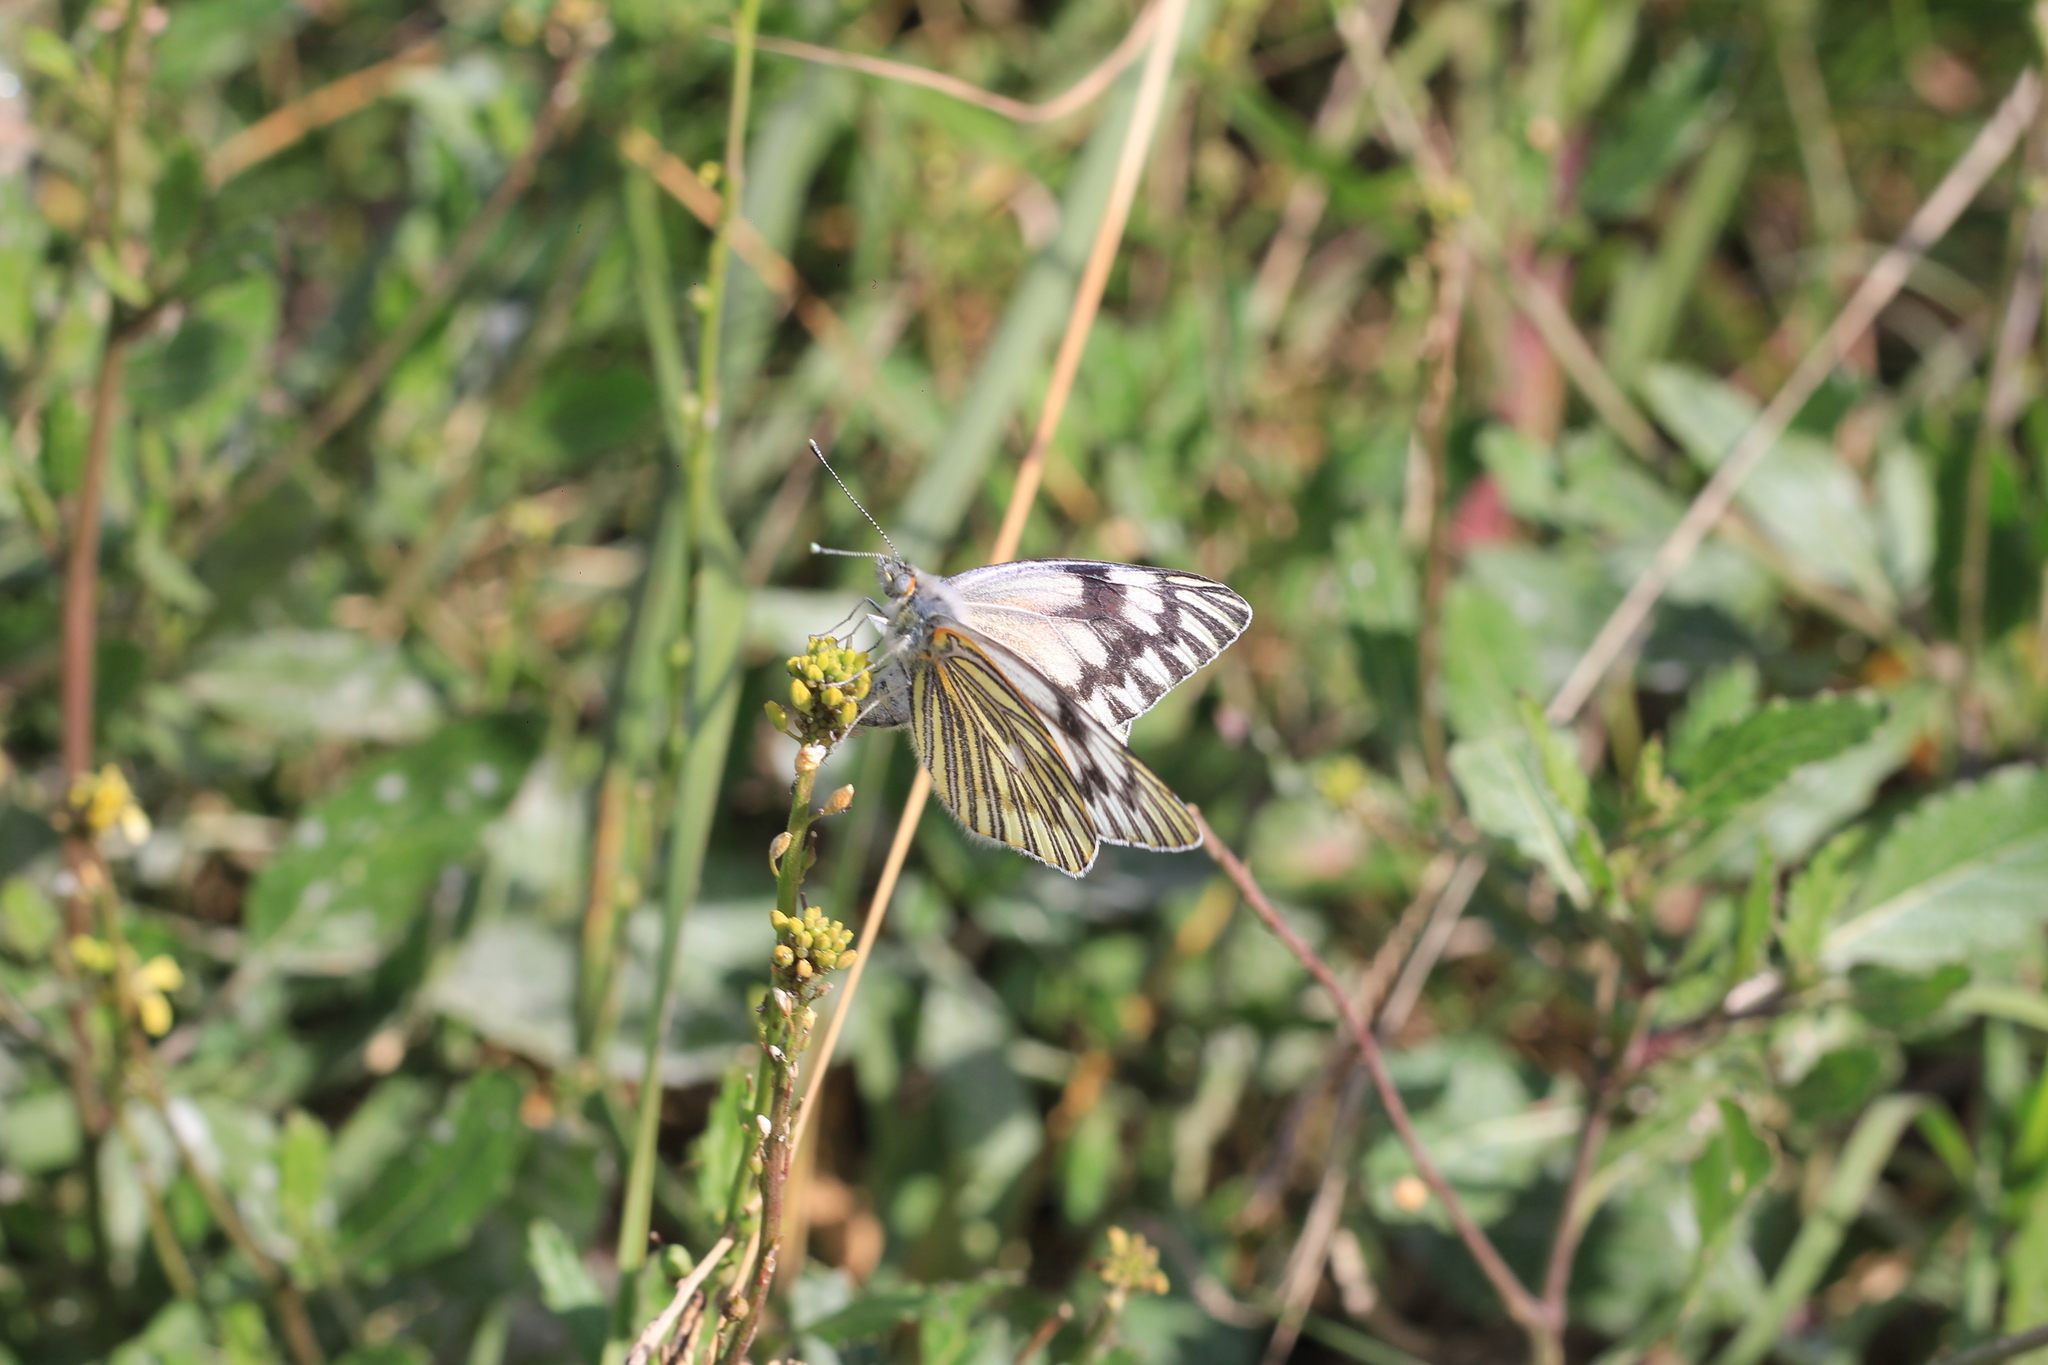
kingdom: Animalia
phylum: Arthropoda
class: Insecta
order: Lepidoptera
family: Pieridae
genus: Tatochila
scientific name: Tatochila mercedis
